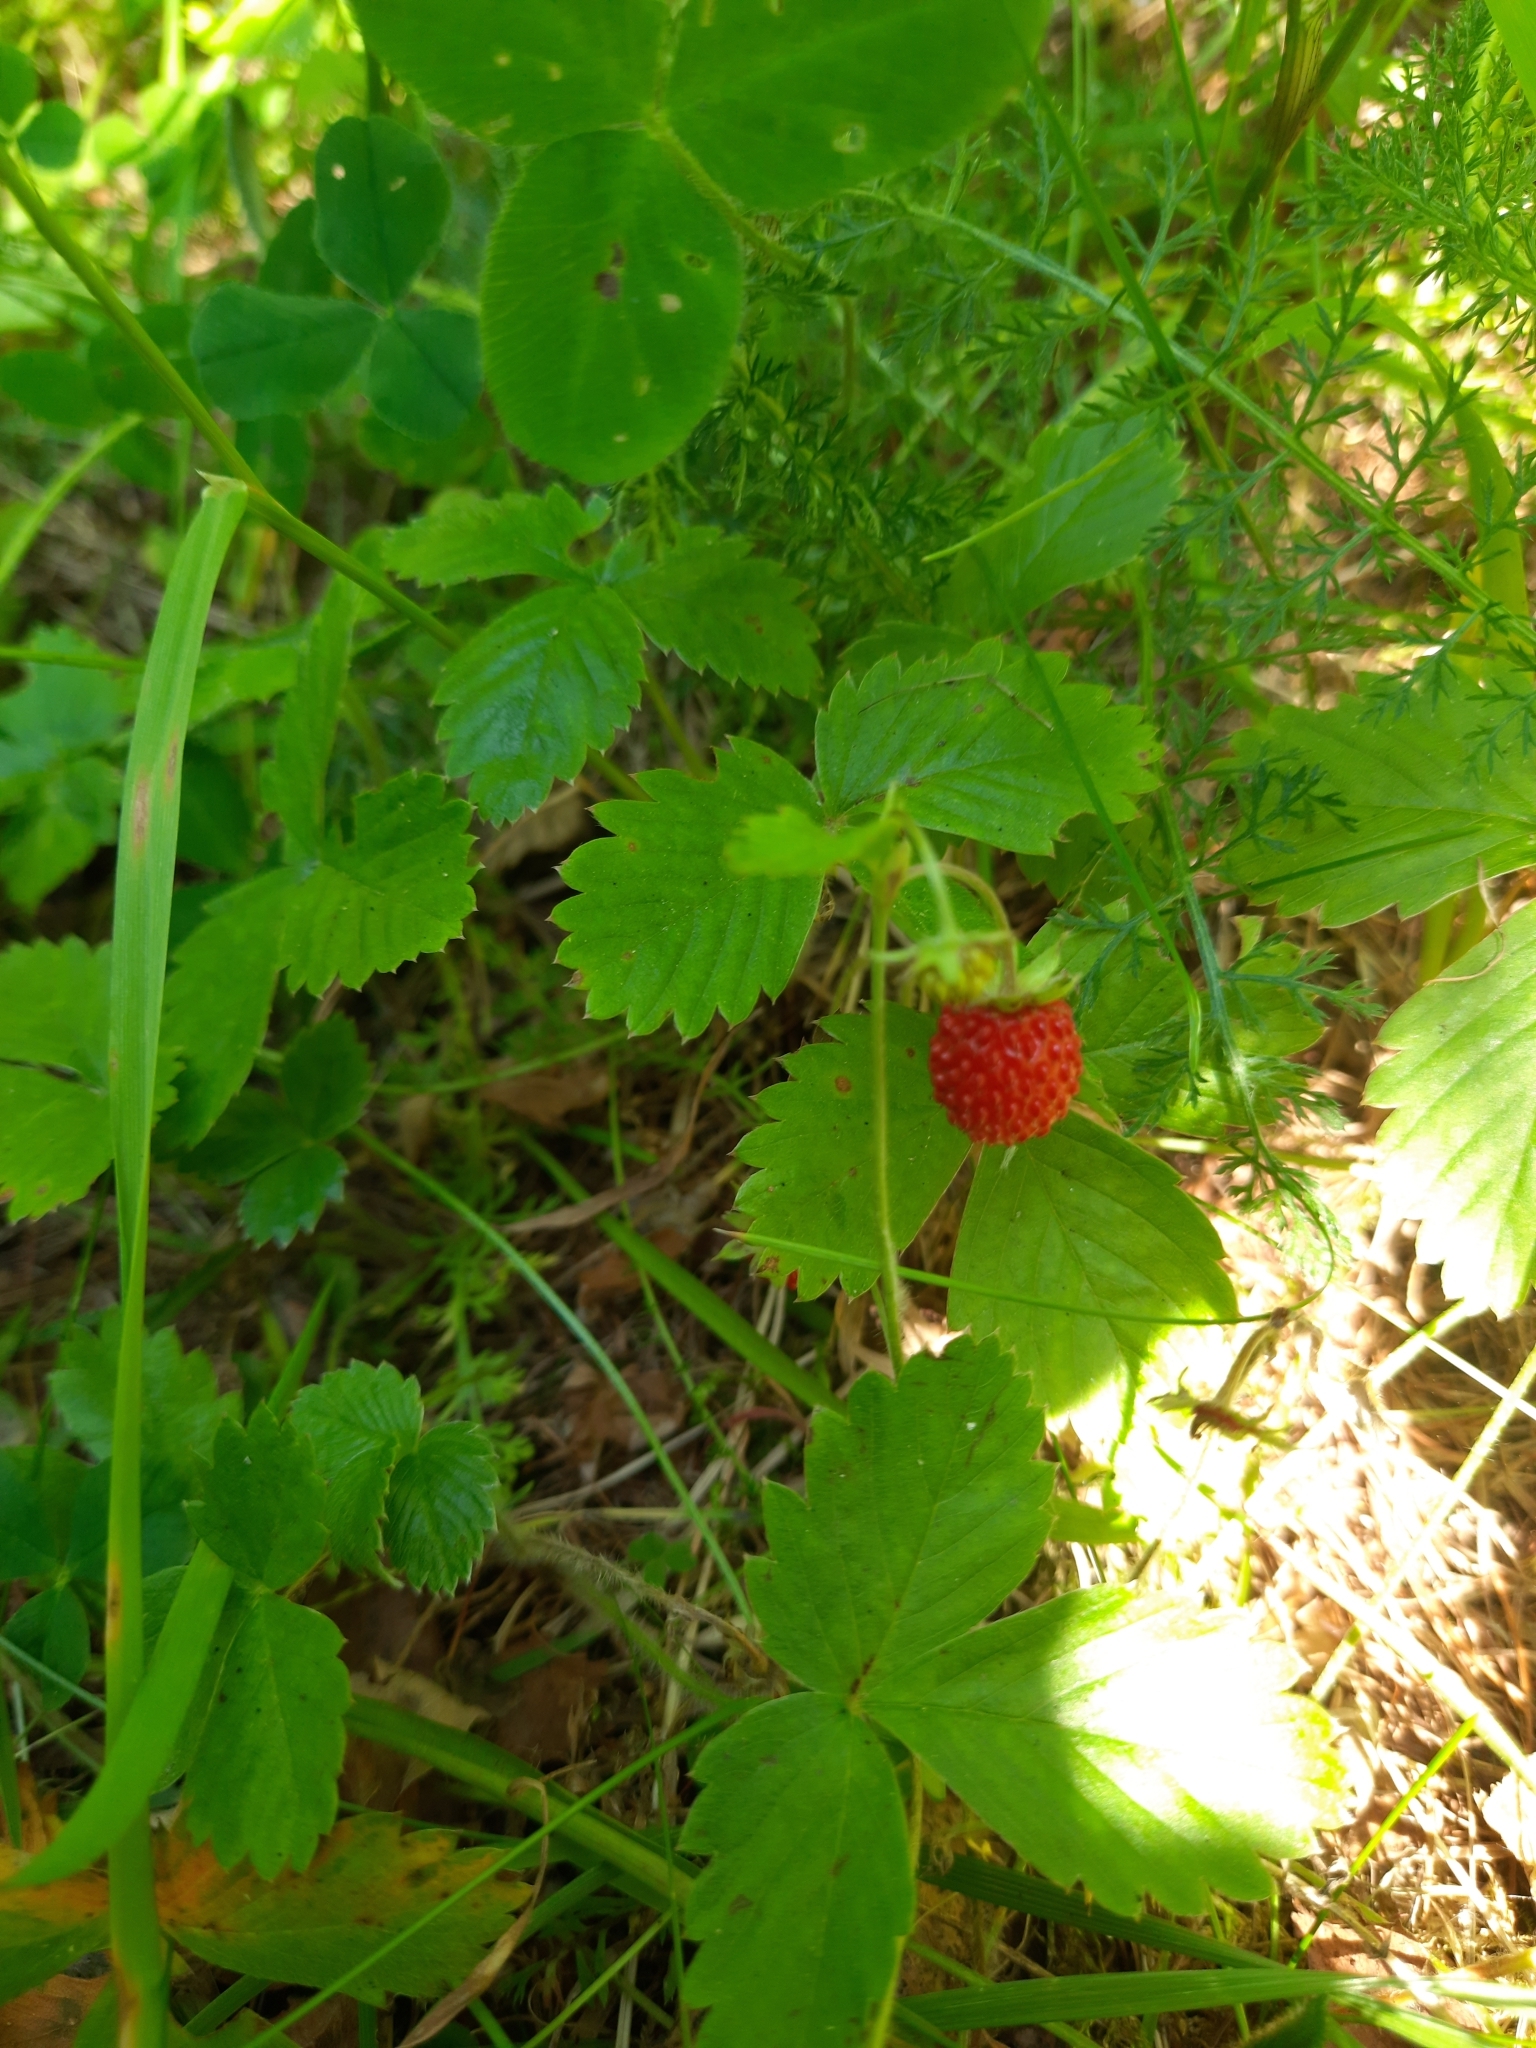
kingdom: Plantae
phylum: Tracheophyta
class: Magnoliopsida
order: Rosales
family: Rosaceae
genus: Fragaria
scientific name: Fragaria vesca
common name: Wild strawberry
